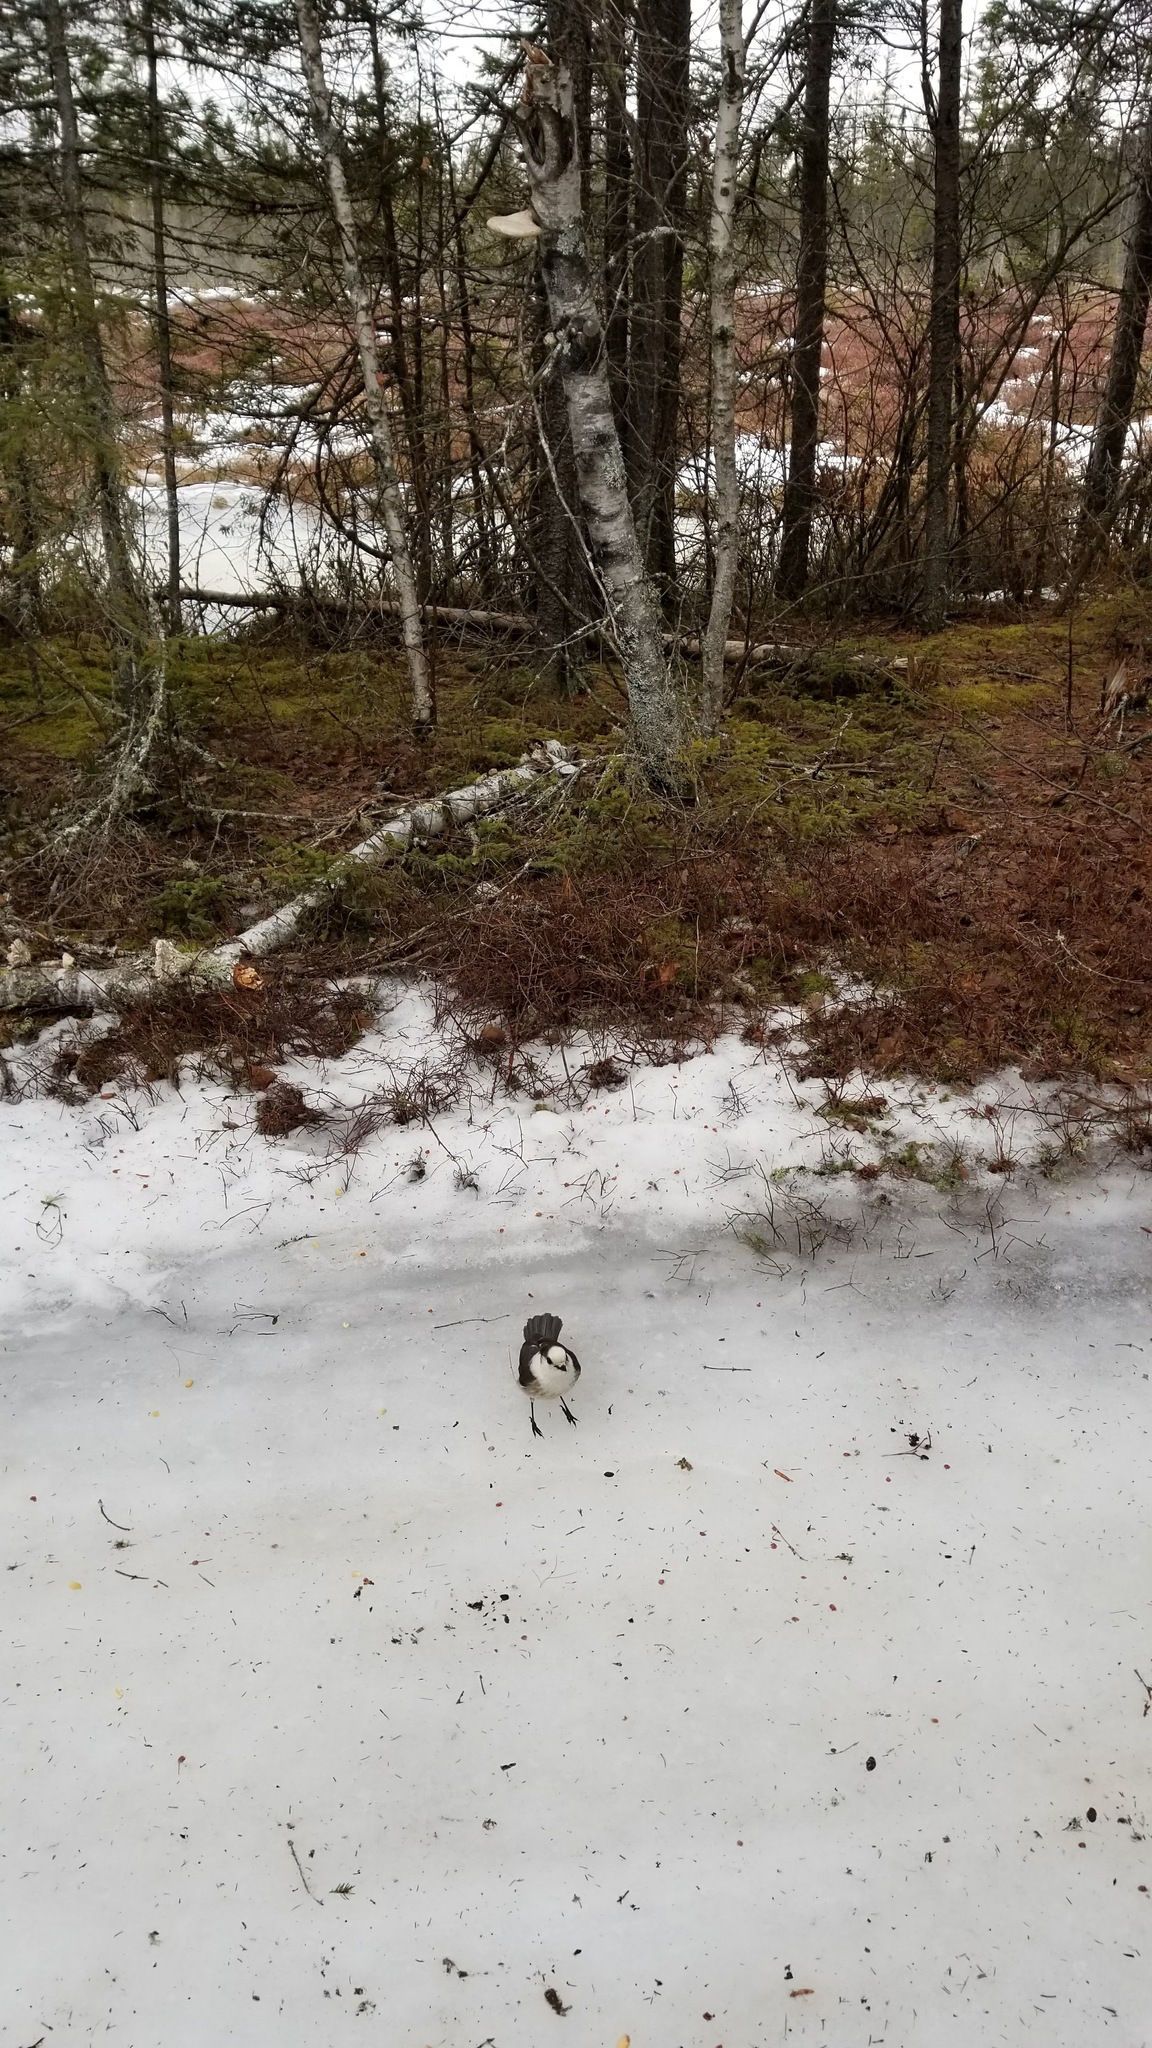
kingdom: Animalia
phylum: Chordata
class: Aves
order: Passeriformes
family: Corvidae
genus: Perisoreus
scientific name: Perisoreus canadensis
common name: Gray jay
